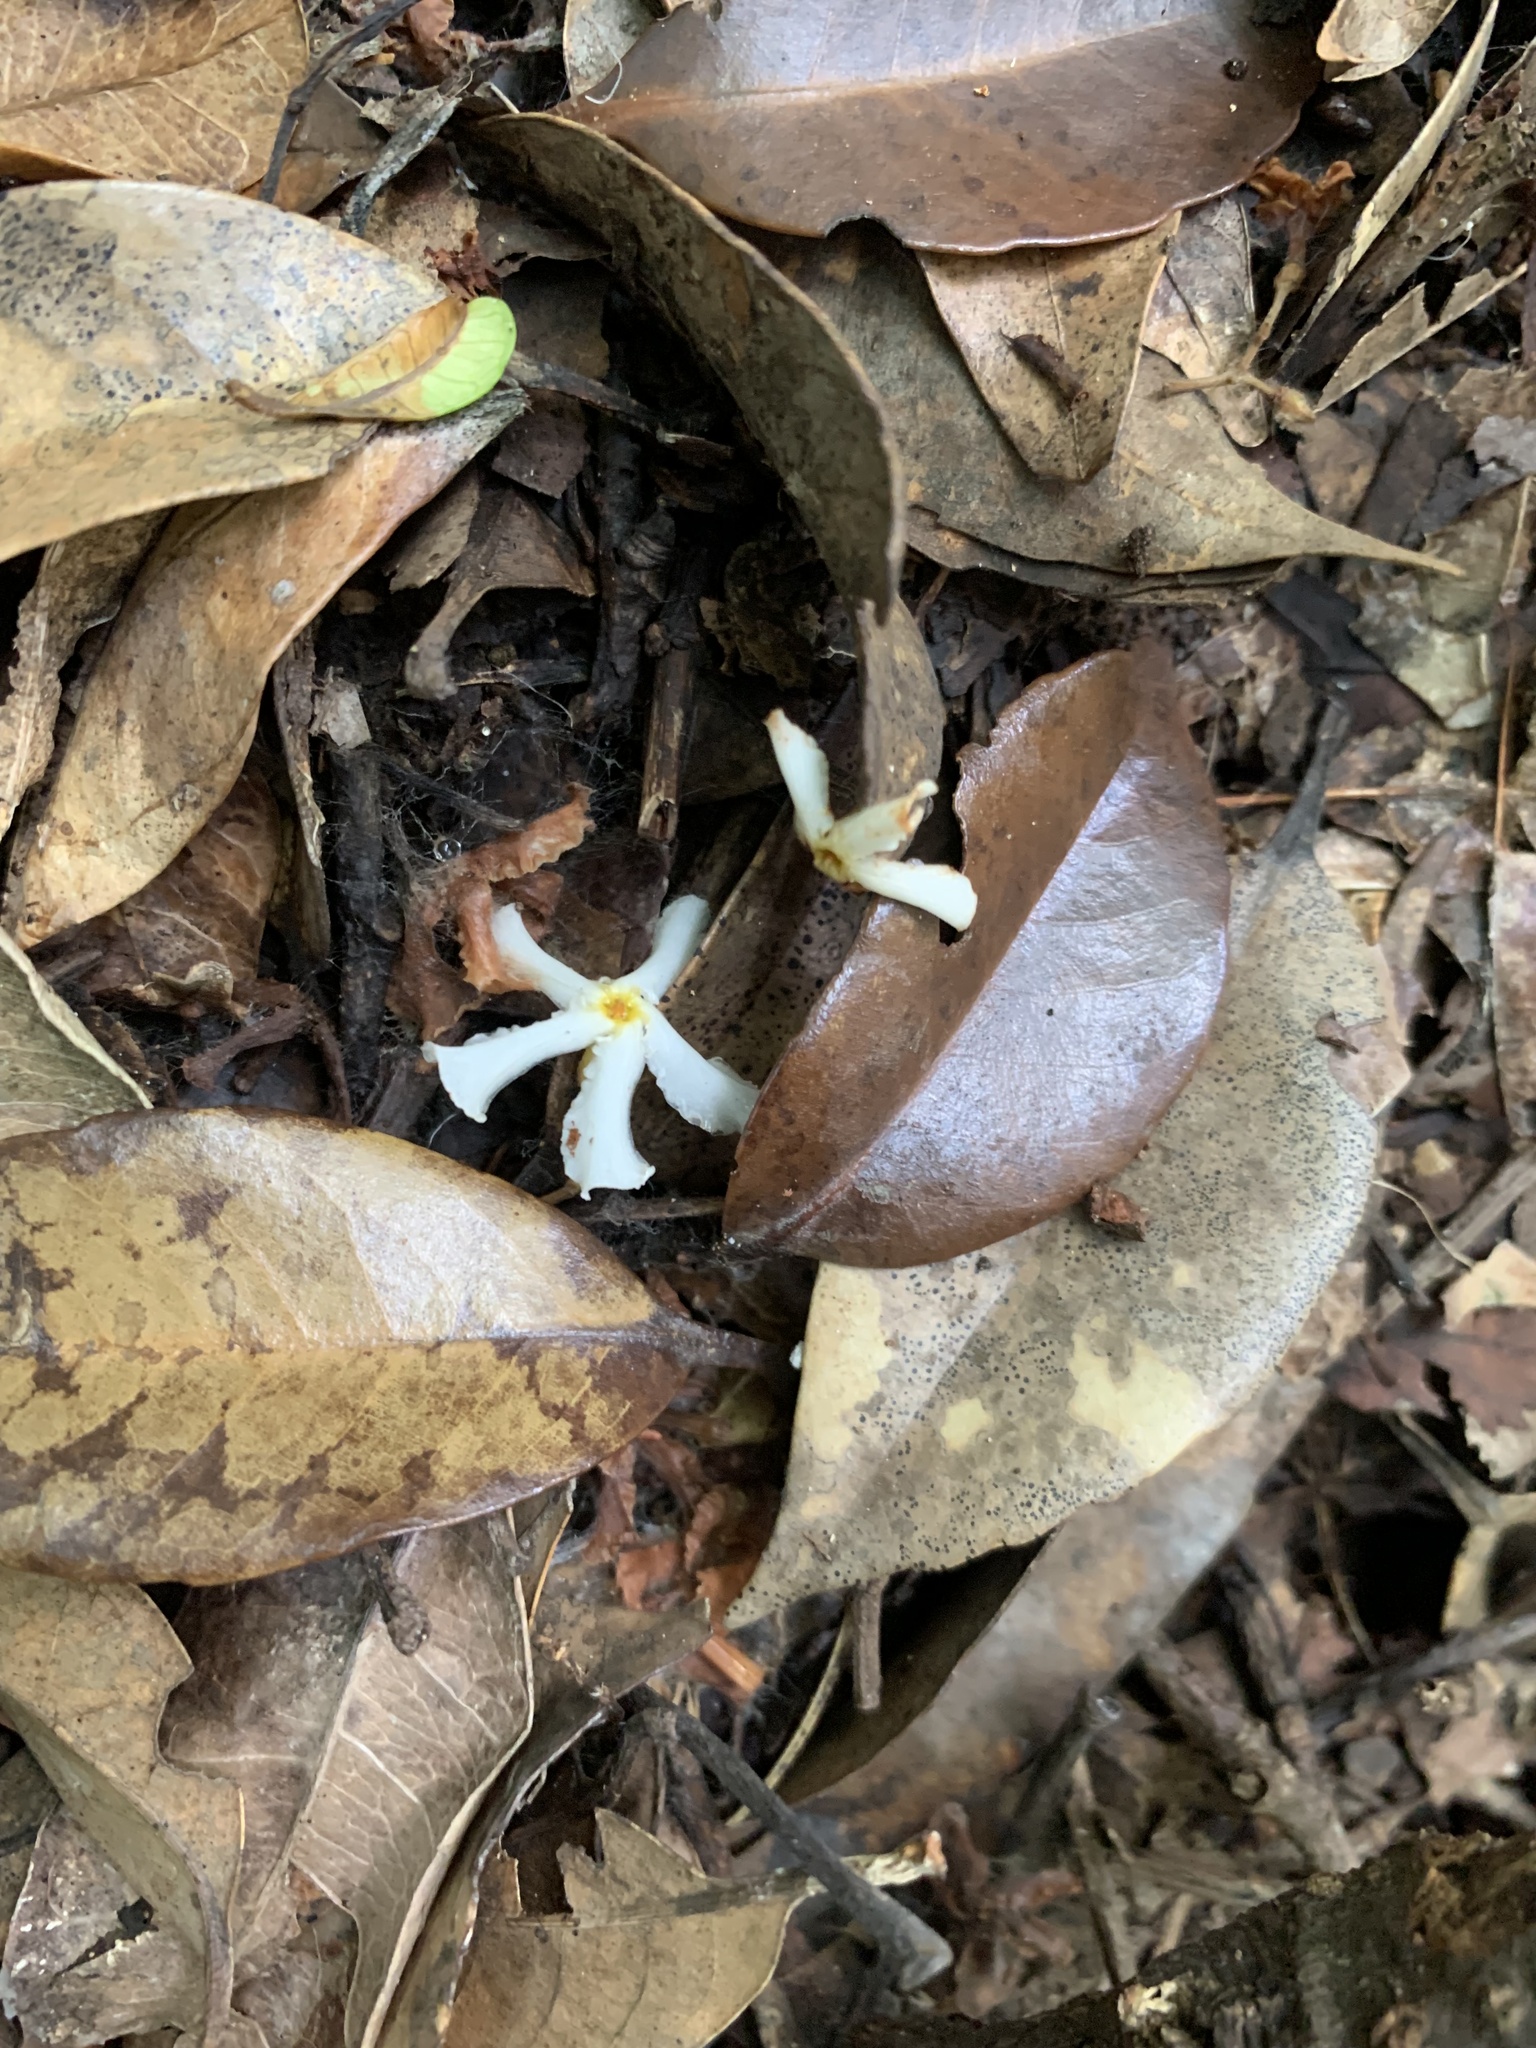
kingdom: Plantae
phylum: Tracheophyta
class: Magnoliopsida
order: Gentianales
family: Apocynaceae
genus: Trachelospermum
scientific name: Trachelospermum asiaticum
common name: Asiatic jasmine
